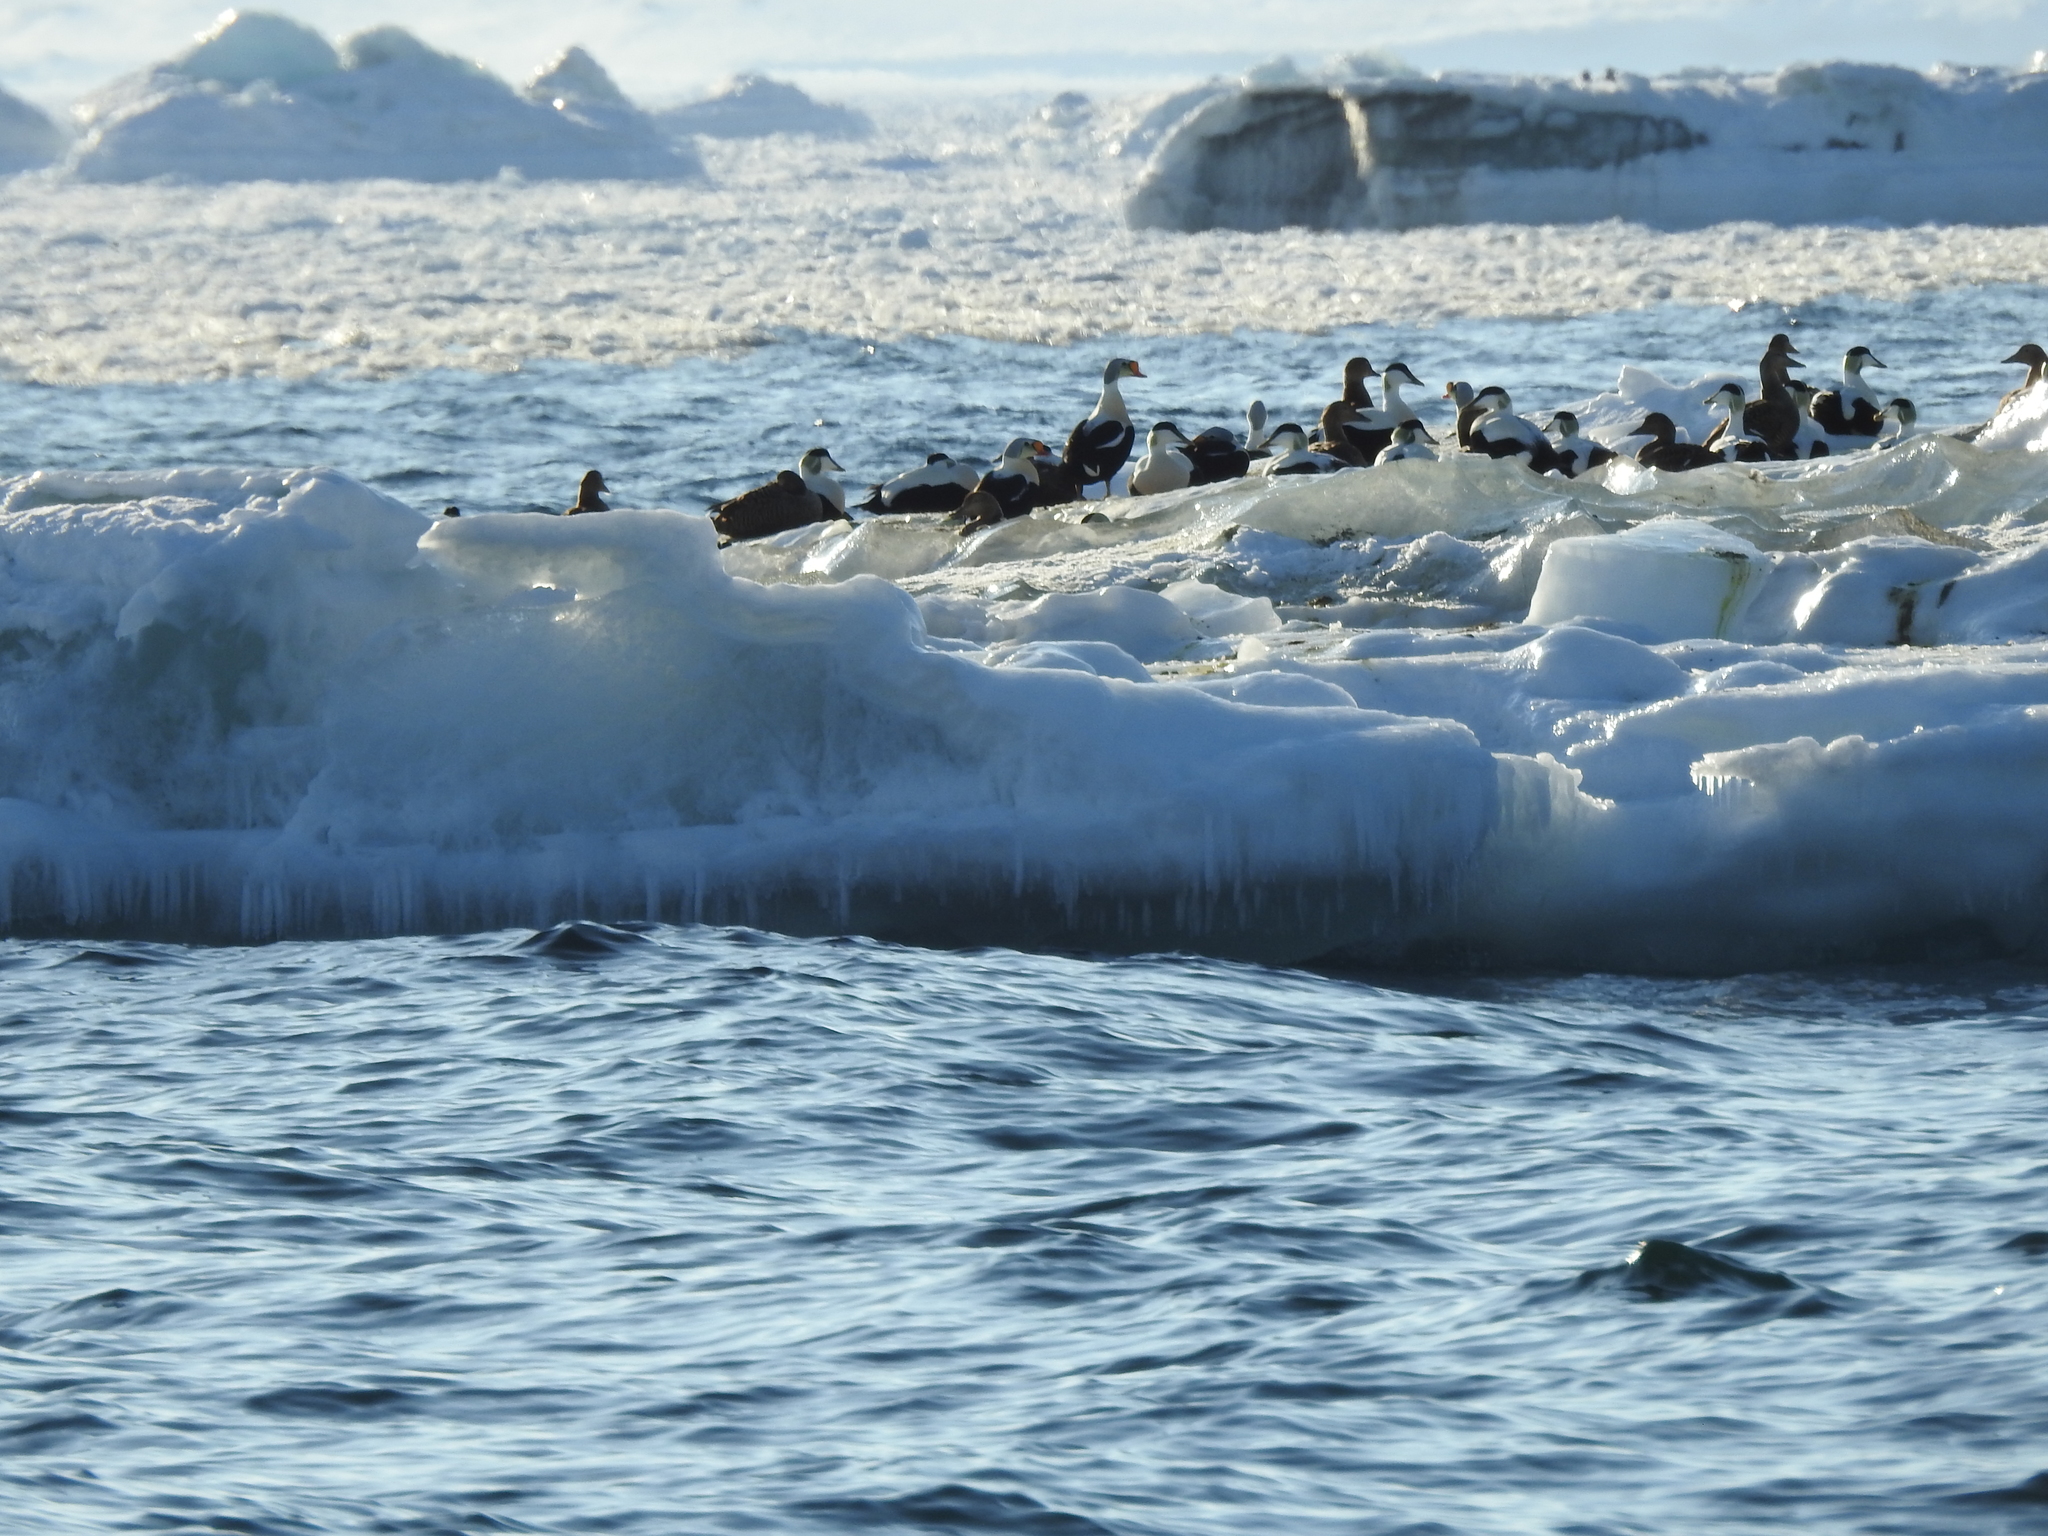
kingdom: Animalia
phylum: Chordata
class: Aves
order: Anseriformes
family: Anatidae
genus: Somateria
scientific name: Somateria spectabilis
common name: King eider
